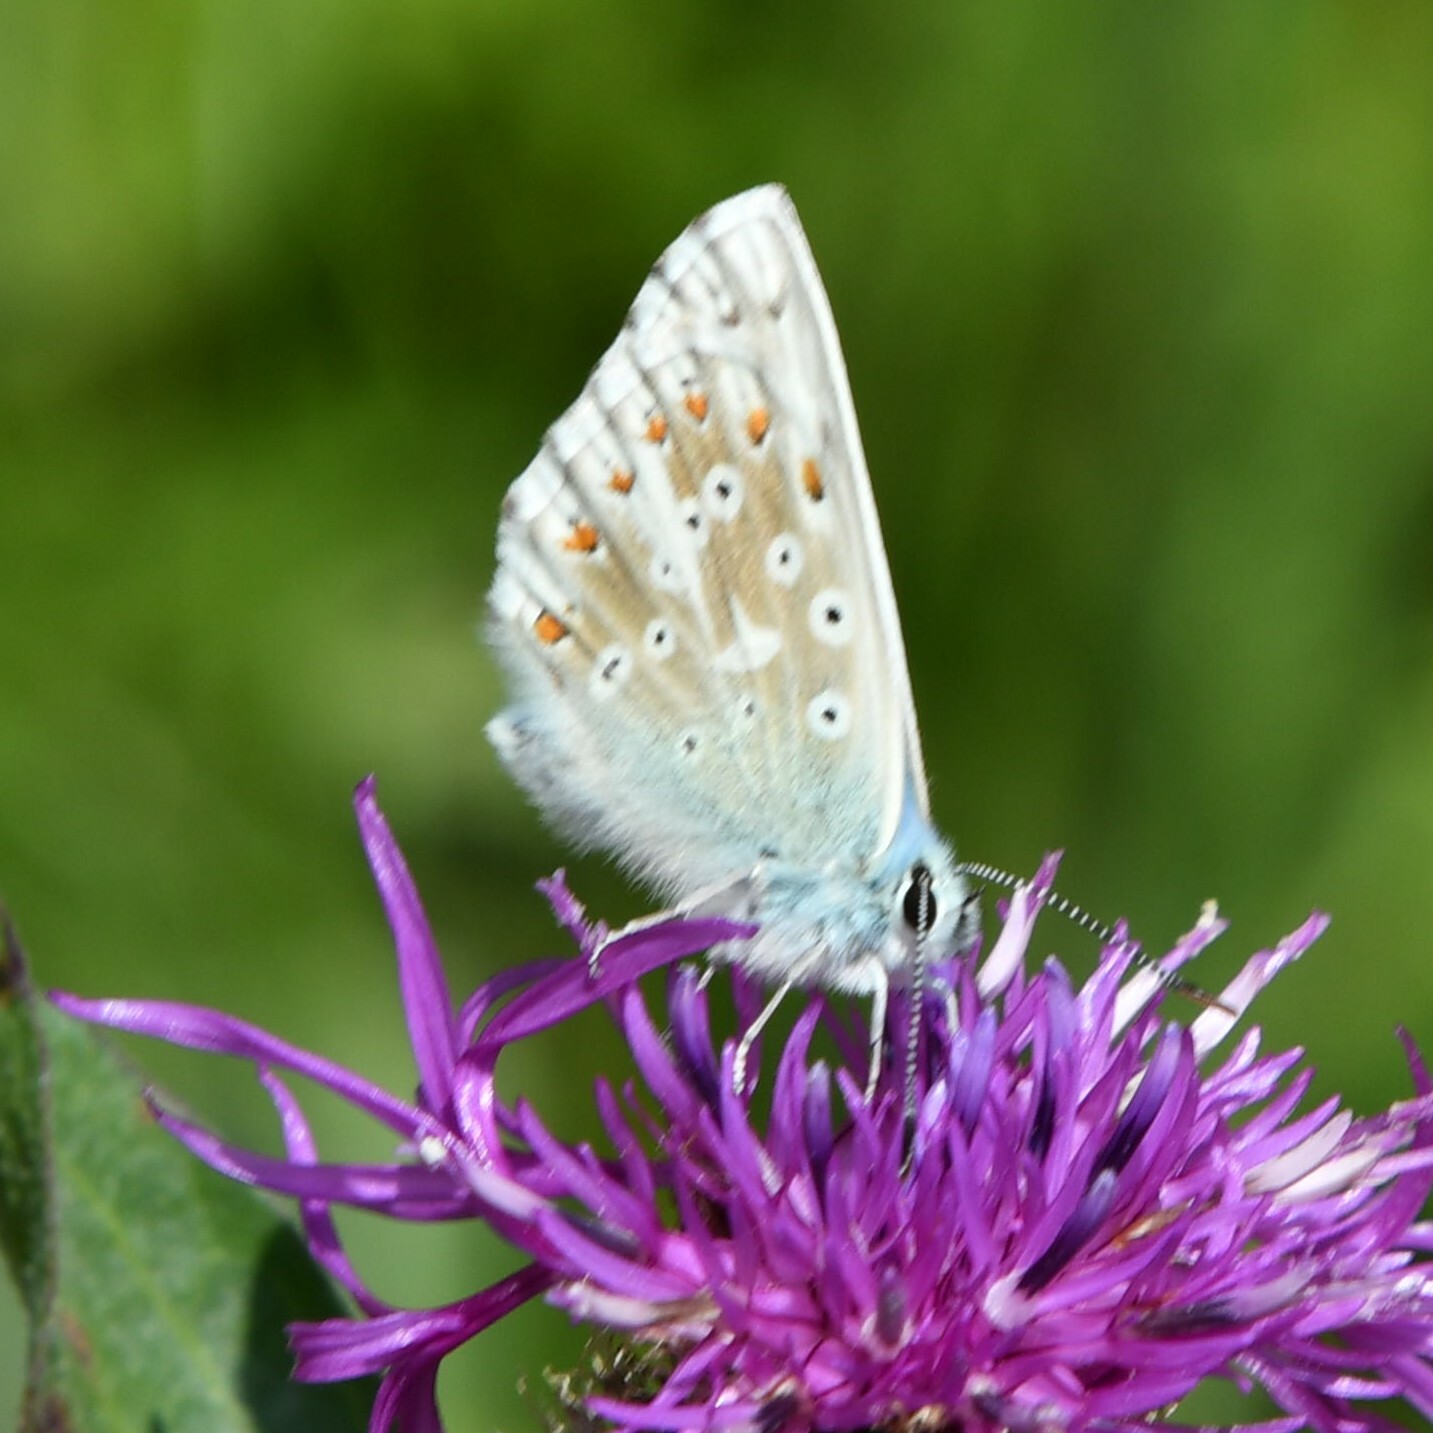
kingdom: Animalia
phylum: Arthropoda
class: Insecta
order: Lepidoptera
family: Lycaenidae
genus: Lysandra
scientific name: Lysandra coridon
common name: Chalkhill blue
